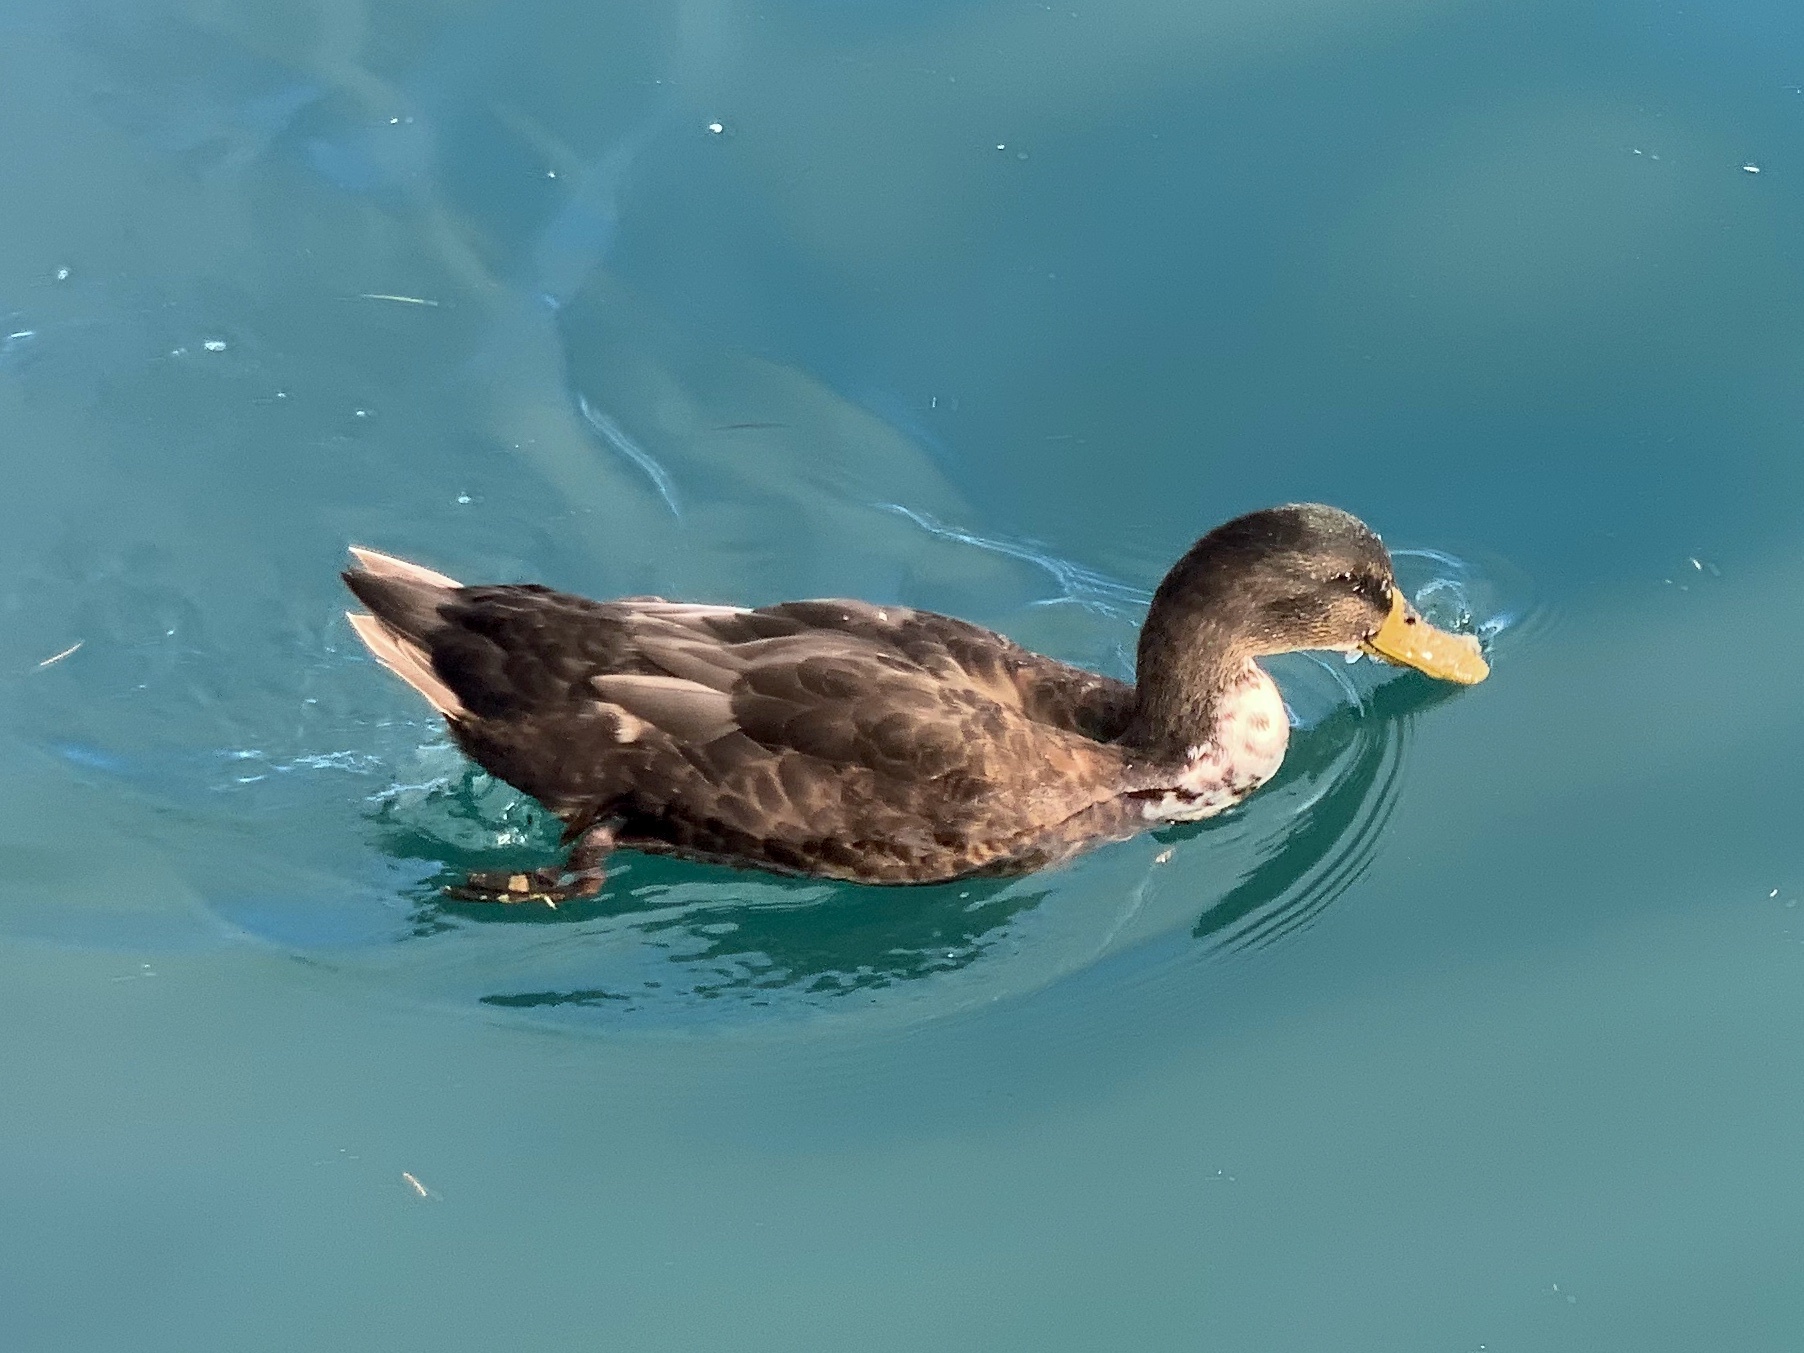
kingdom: Animalia
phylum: Chordata
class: Aves
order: Anseriformes
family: Anatidae
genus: Anas
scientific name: Anas platyrhynchos
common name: Mallard
